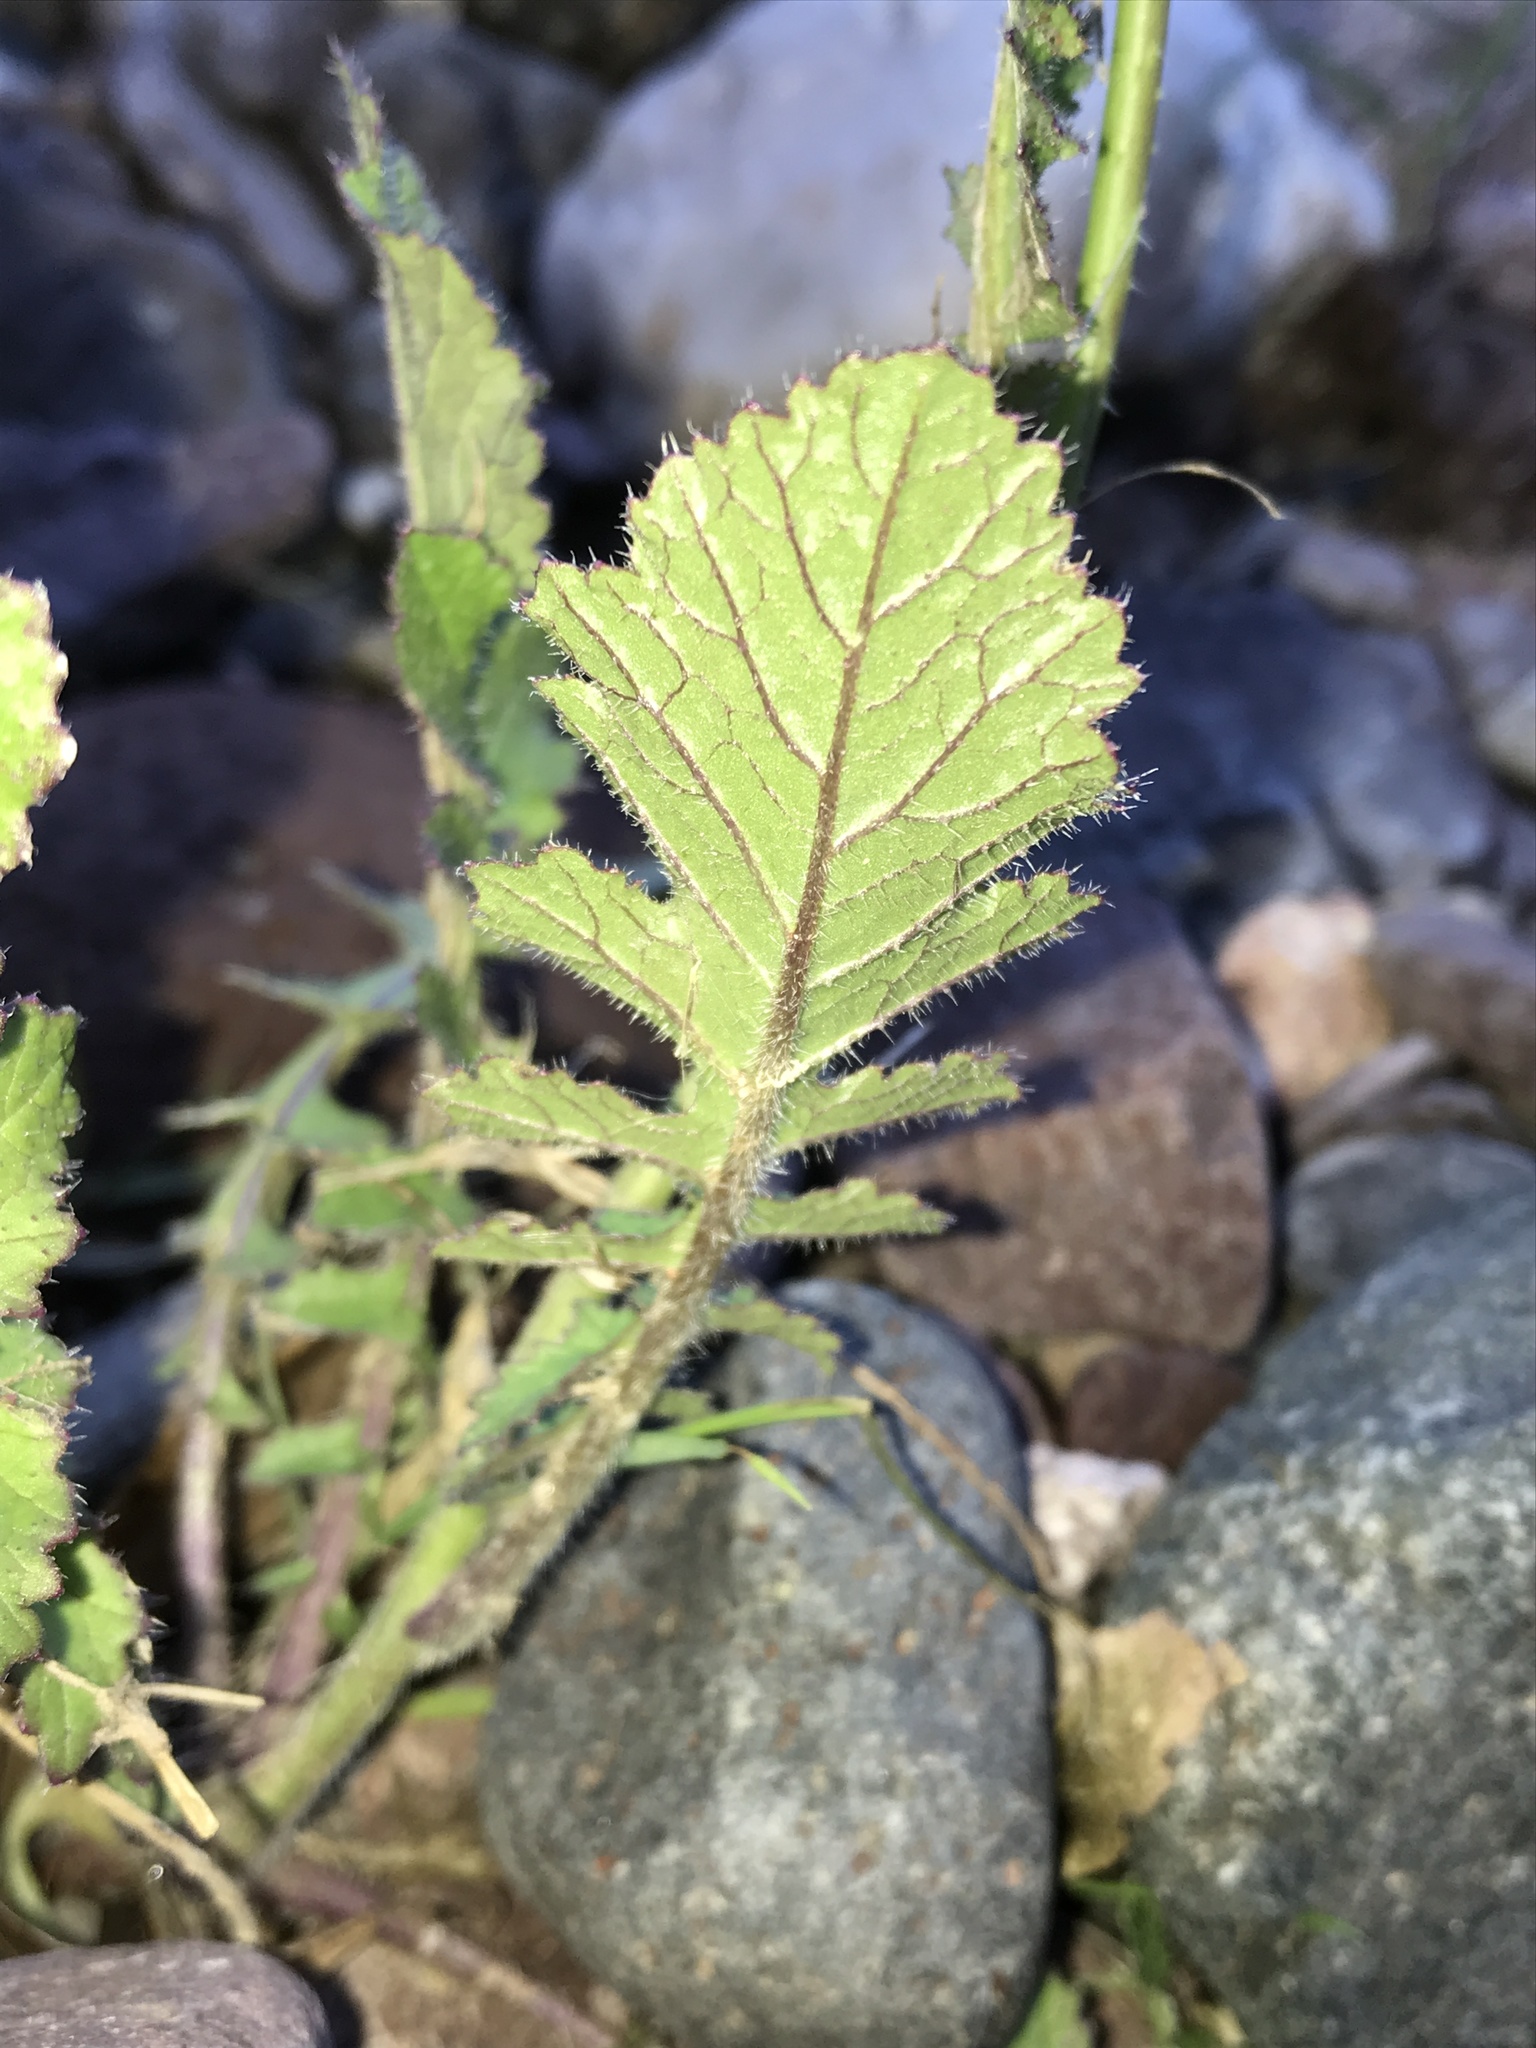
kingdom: Plantae
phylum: Tracheophyta
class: Magnoliopsida
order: Brassicales
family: Brassicaceae
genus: Brassica
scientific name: Brassica tournefortii
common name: Pale cabbage
